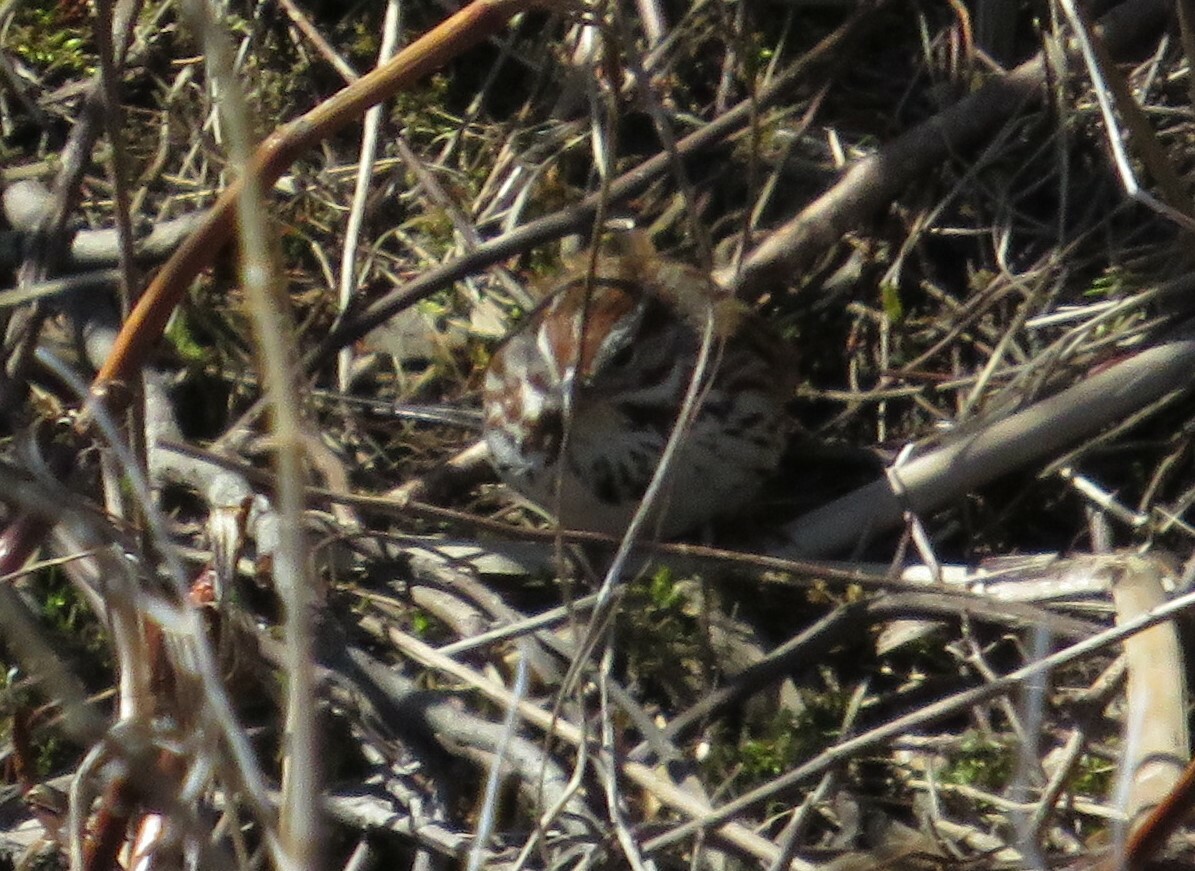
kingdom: Animalia
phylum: Chordata
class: Aves
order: Passeriformes
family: Passerellidae
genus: Melospiza
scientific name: Melospiza melodia
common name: Song sparrow
